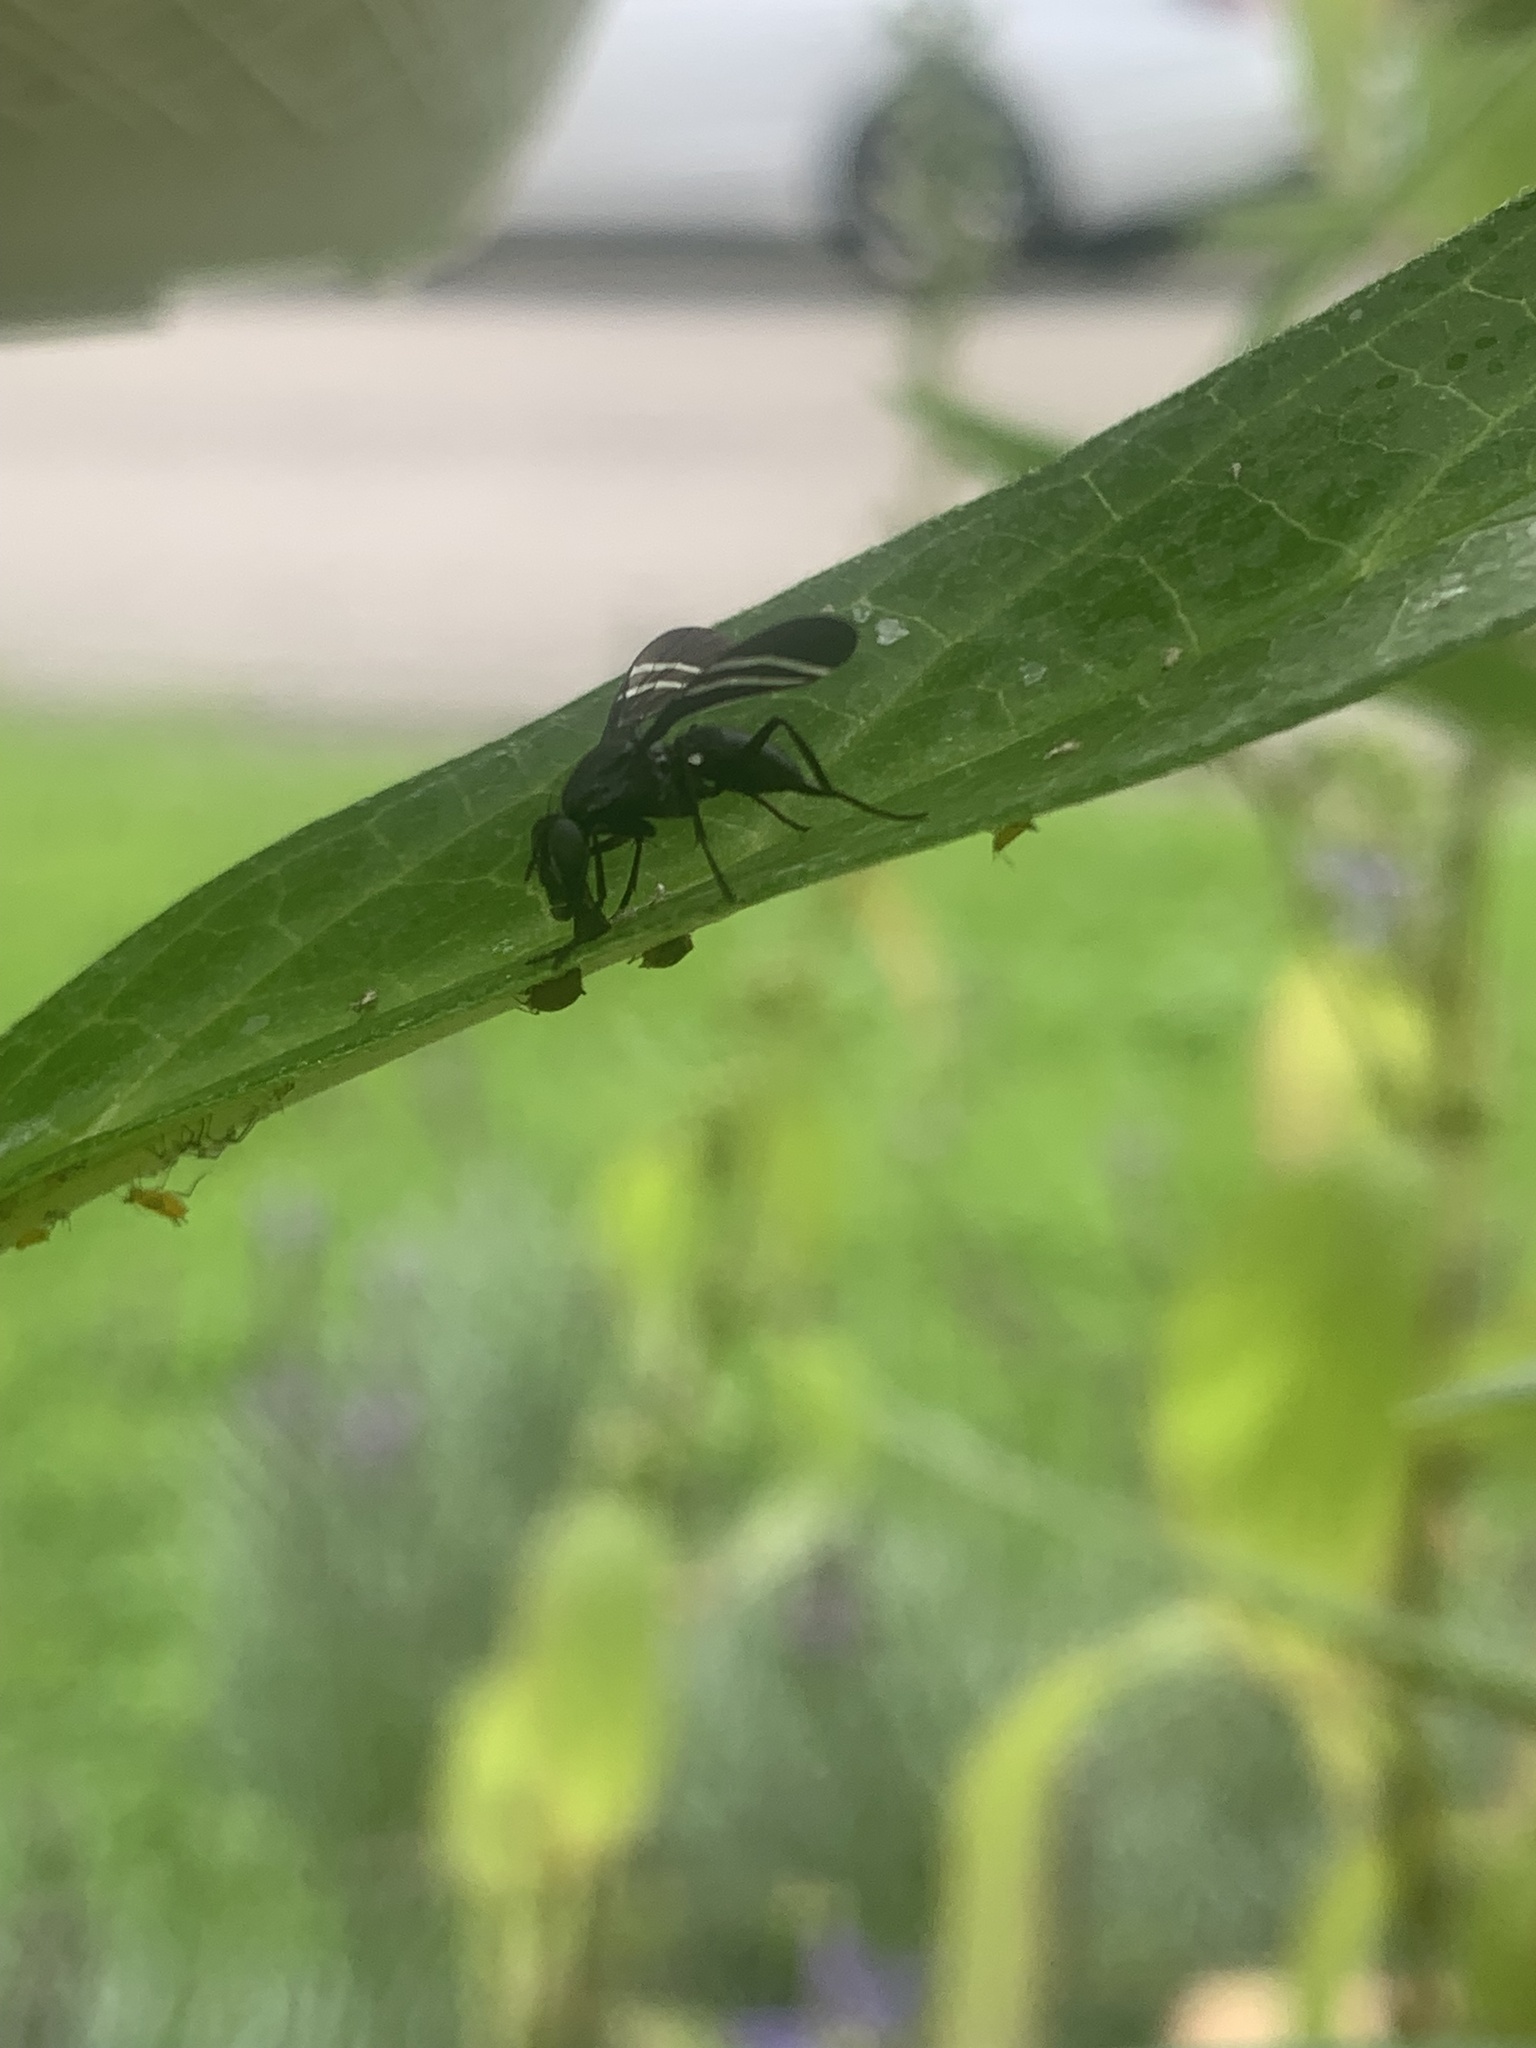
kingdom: Animalia
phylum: Arthropoda
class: Insecta
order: Diptera
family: Ulidiidae
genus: Tritoxa
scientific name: Tritoxa flexa
